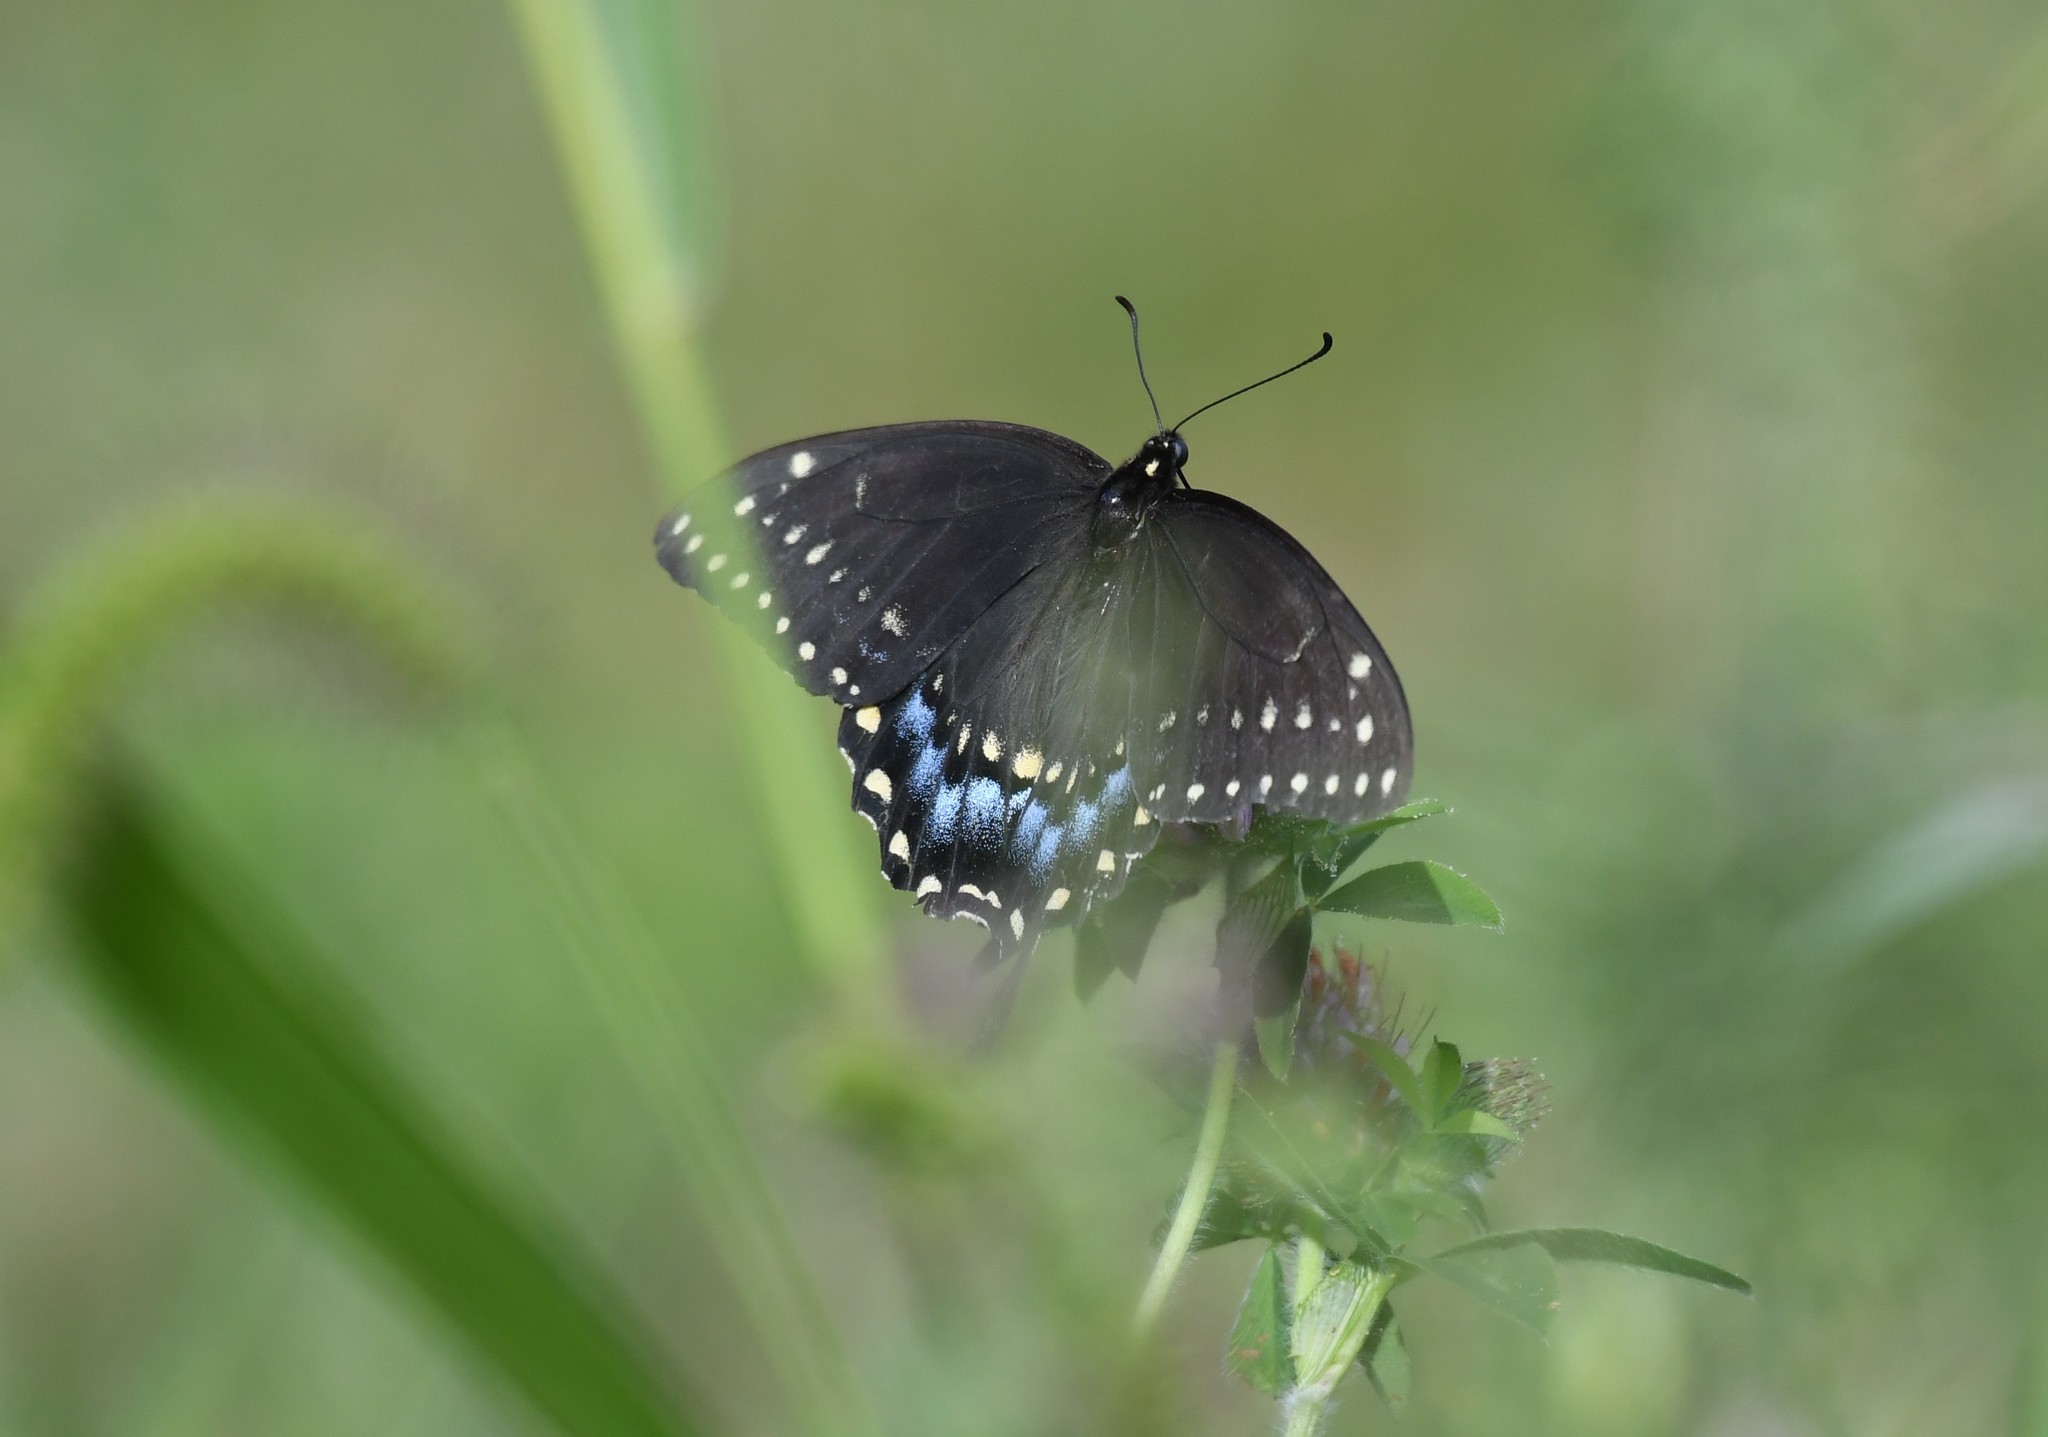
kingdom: Animalia
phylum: Arthropoda
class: Insecta
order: Lepidoptera
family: Papilionidae
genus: Papilio
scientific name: Papilio polyxenes
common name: Black swallowtail
